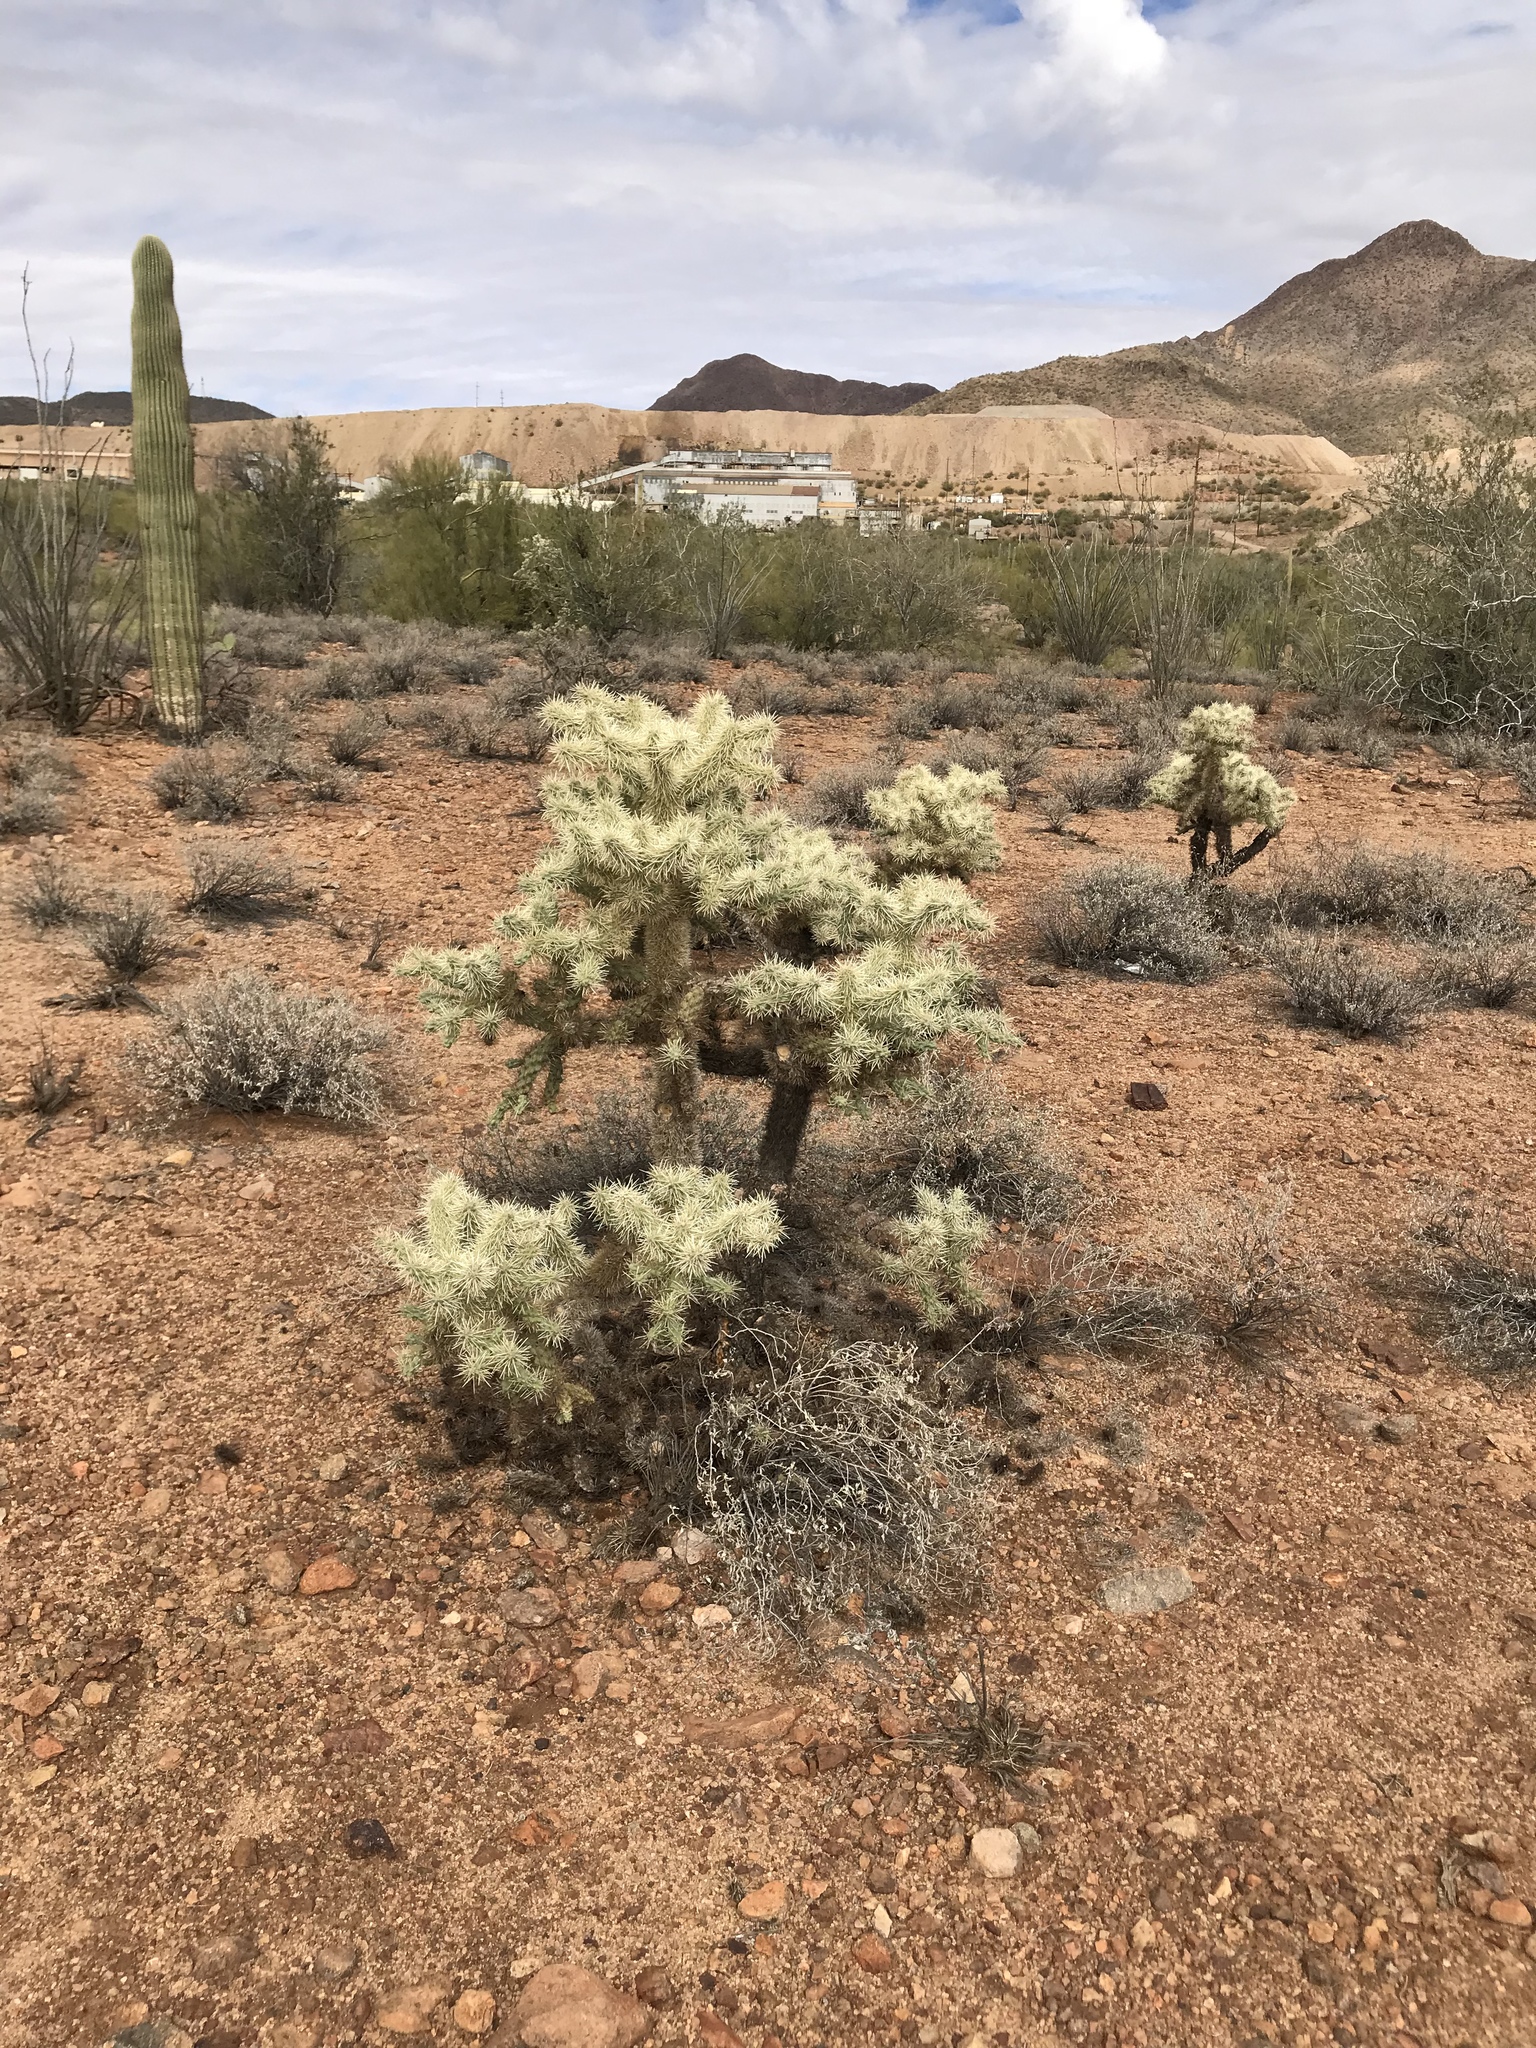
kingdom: Plantae
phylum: Tracheophyta
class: Magnoliopsida
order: Caryophyllales
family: Cactaceae
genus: Cylindropuntia
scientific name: Cylindropuntia fulgida
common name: Jumping cholla
